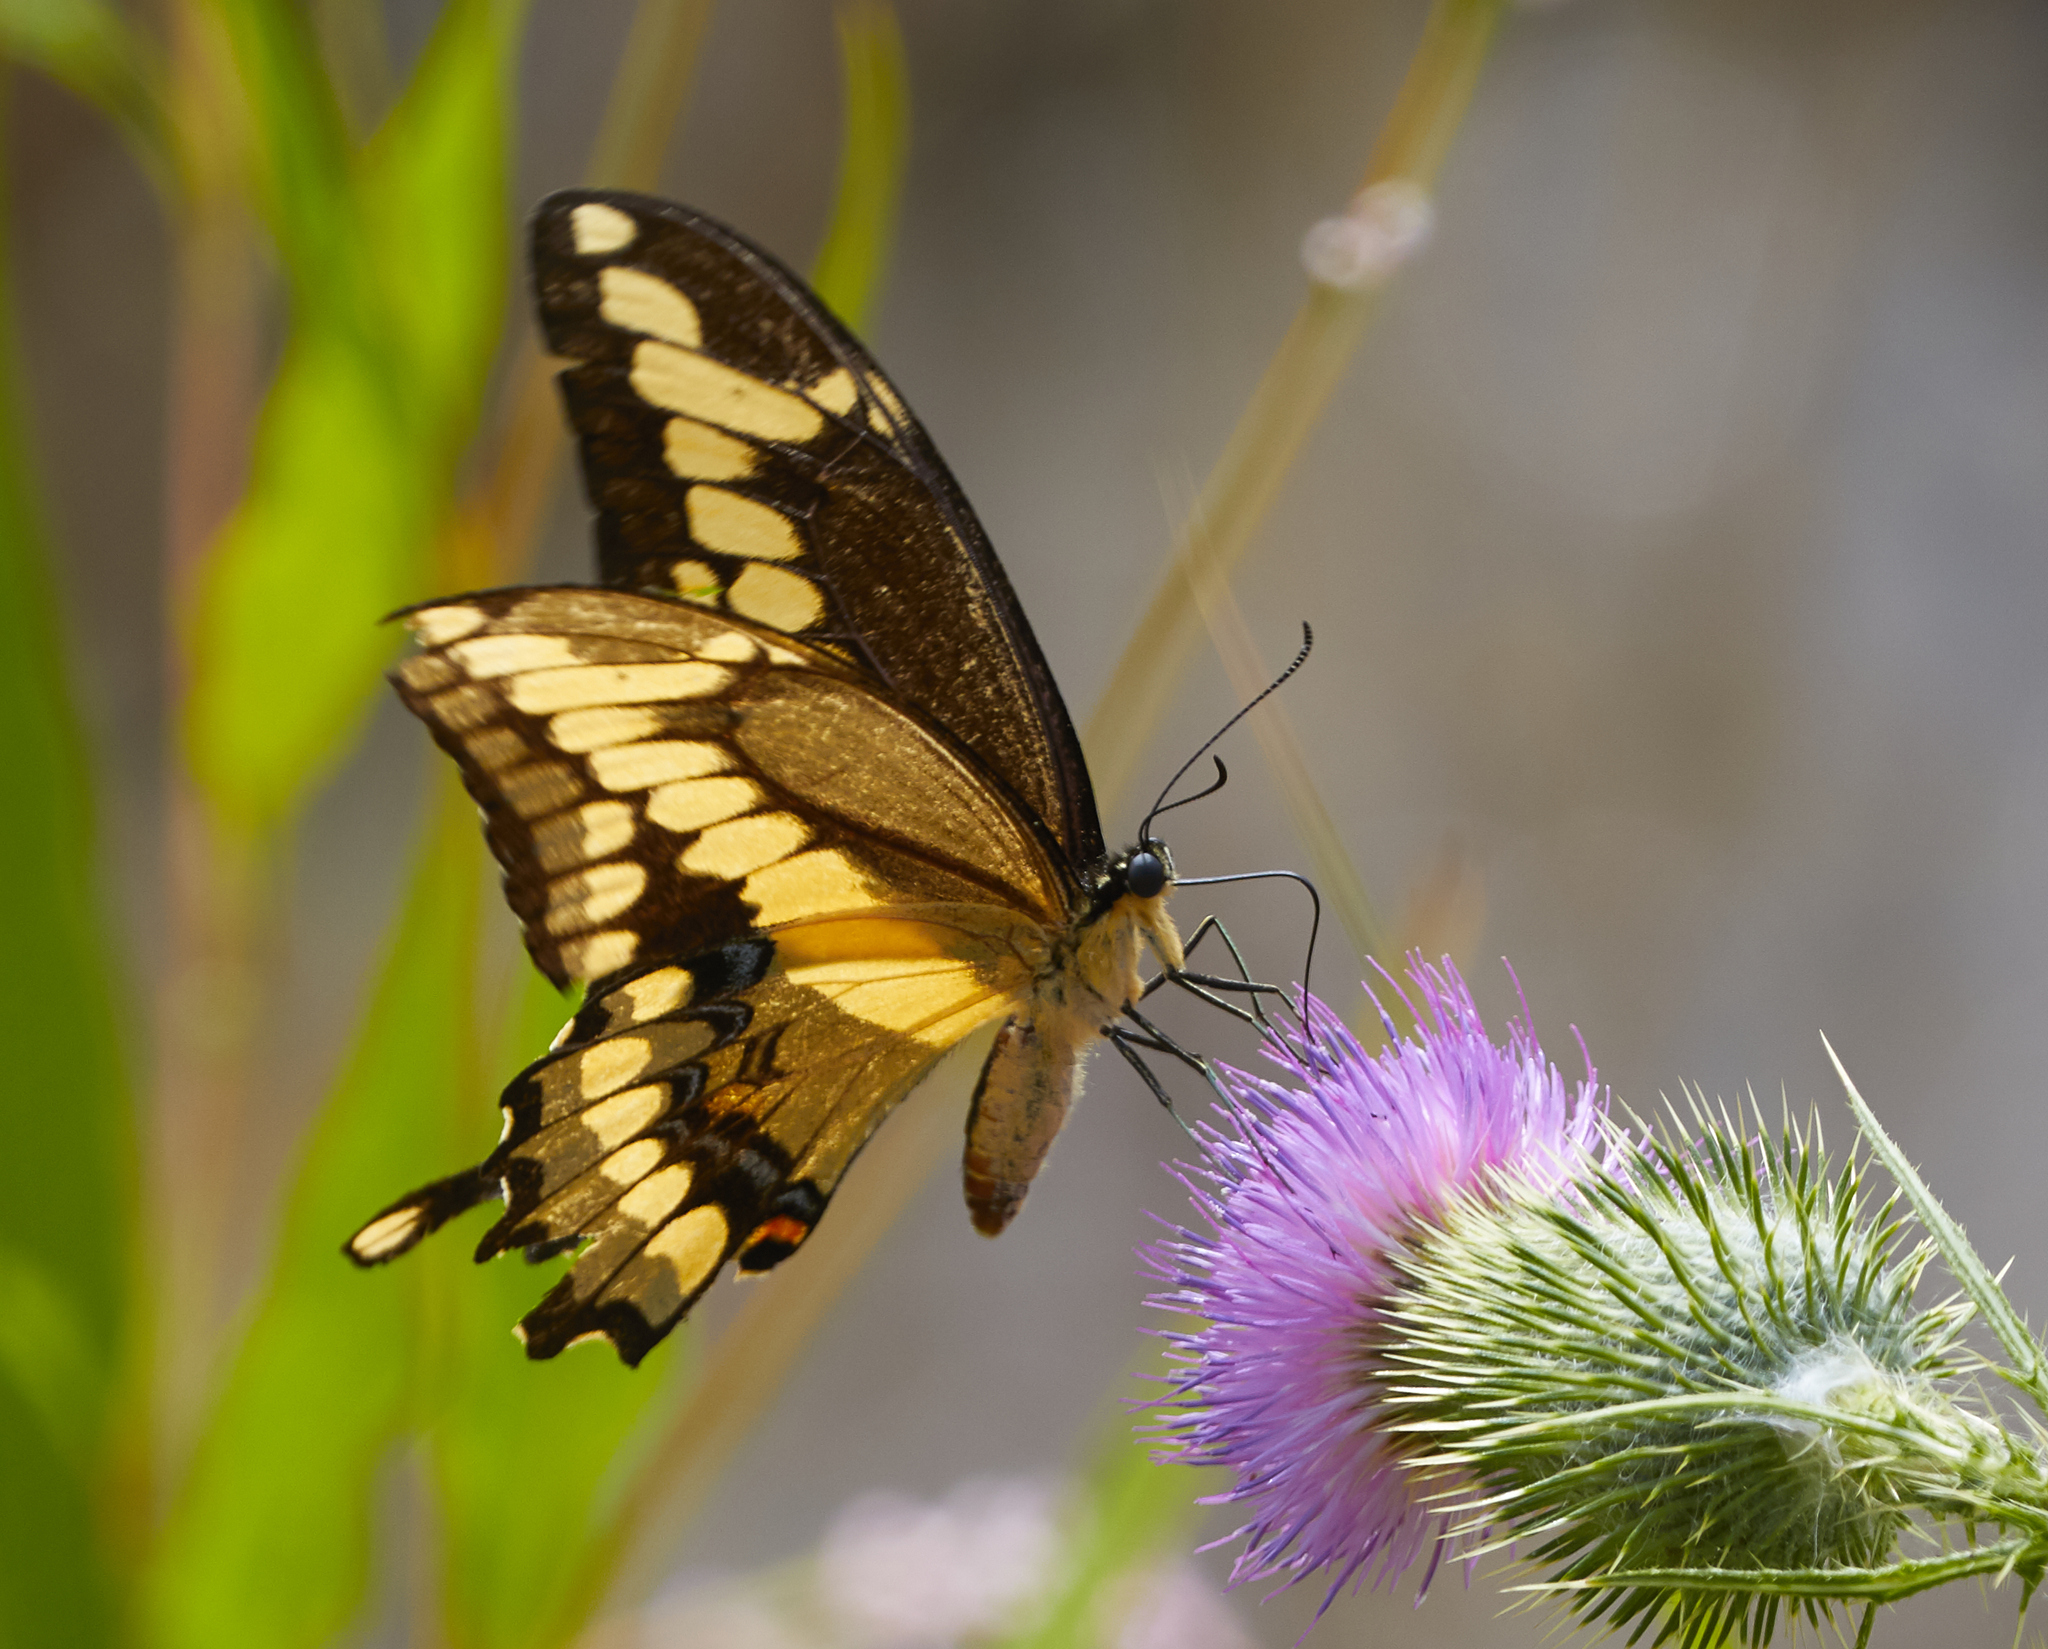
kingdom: Animalia
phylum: Arthropoda
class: Insecta
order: Lepidoptera
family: Papilionidae
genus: Papilio
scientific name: Papilio cresphontes
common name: Giant swallowtail
